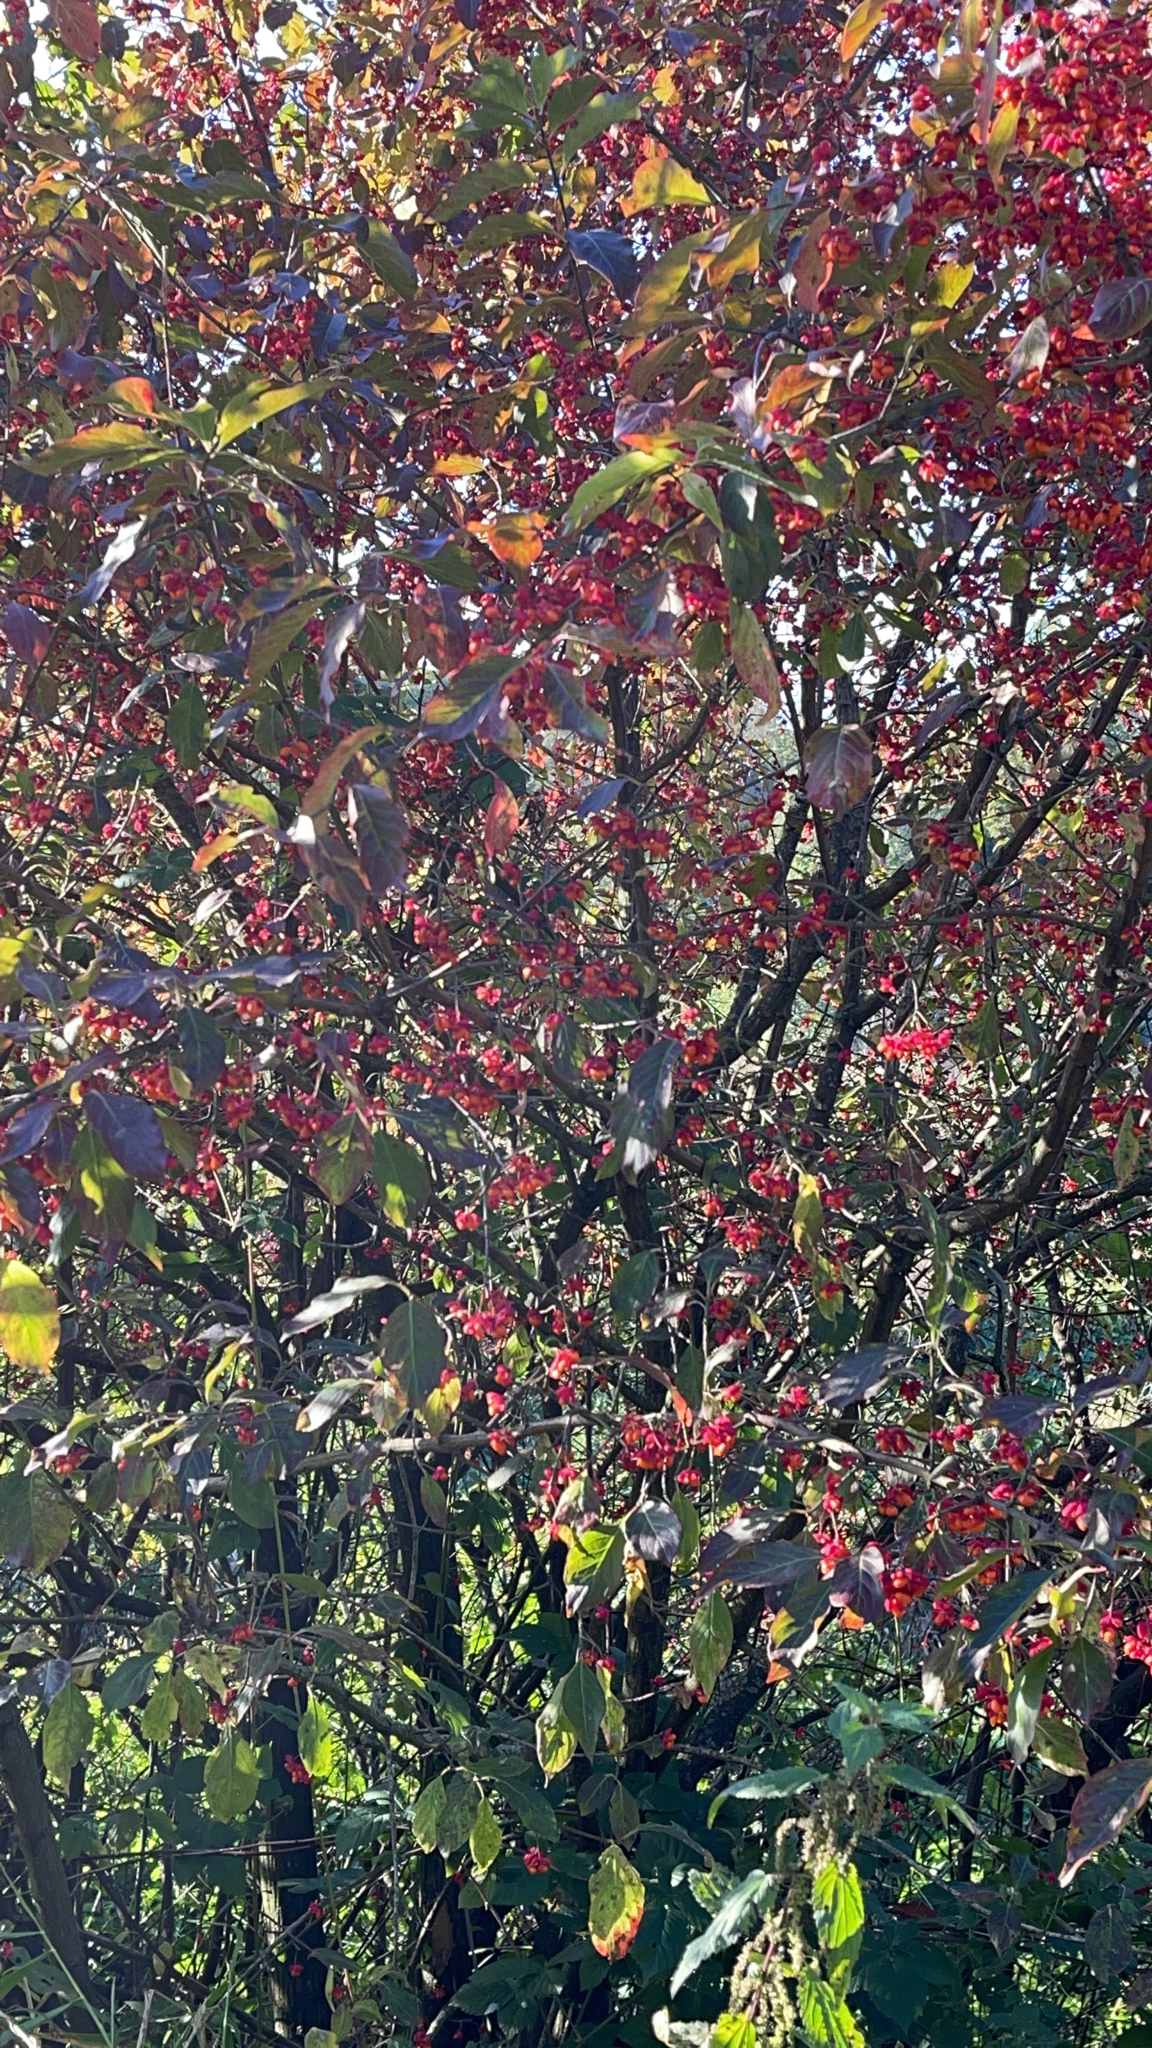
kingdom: Plantae
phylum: Tracheophyta
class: Magnoliopsida
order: Celastrales
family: Celastraceae
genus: Euonymus
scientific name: Euonymus europaeus
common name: Spindle
